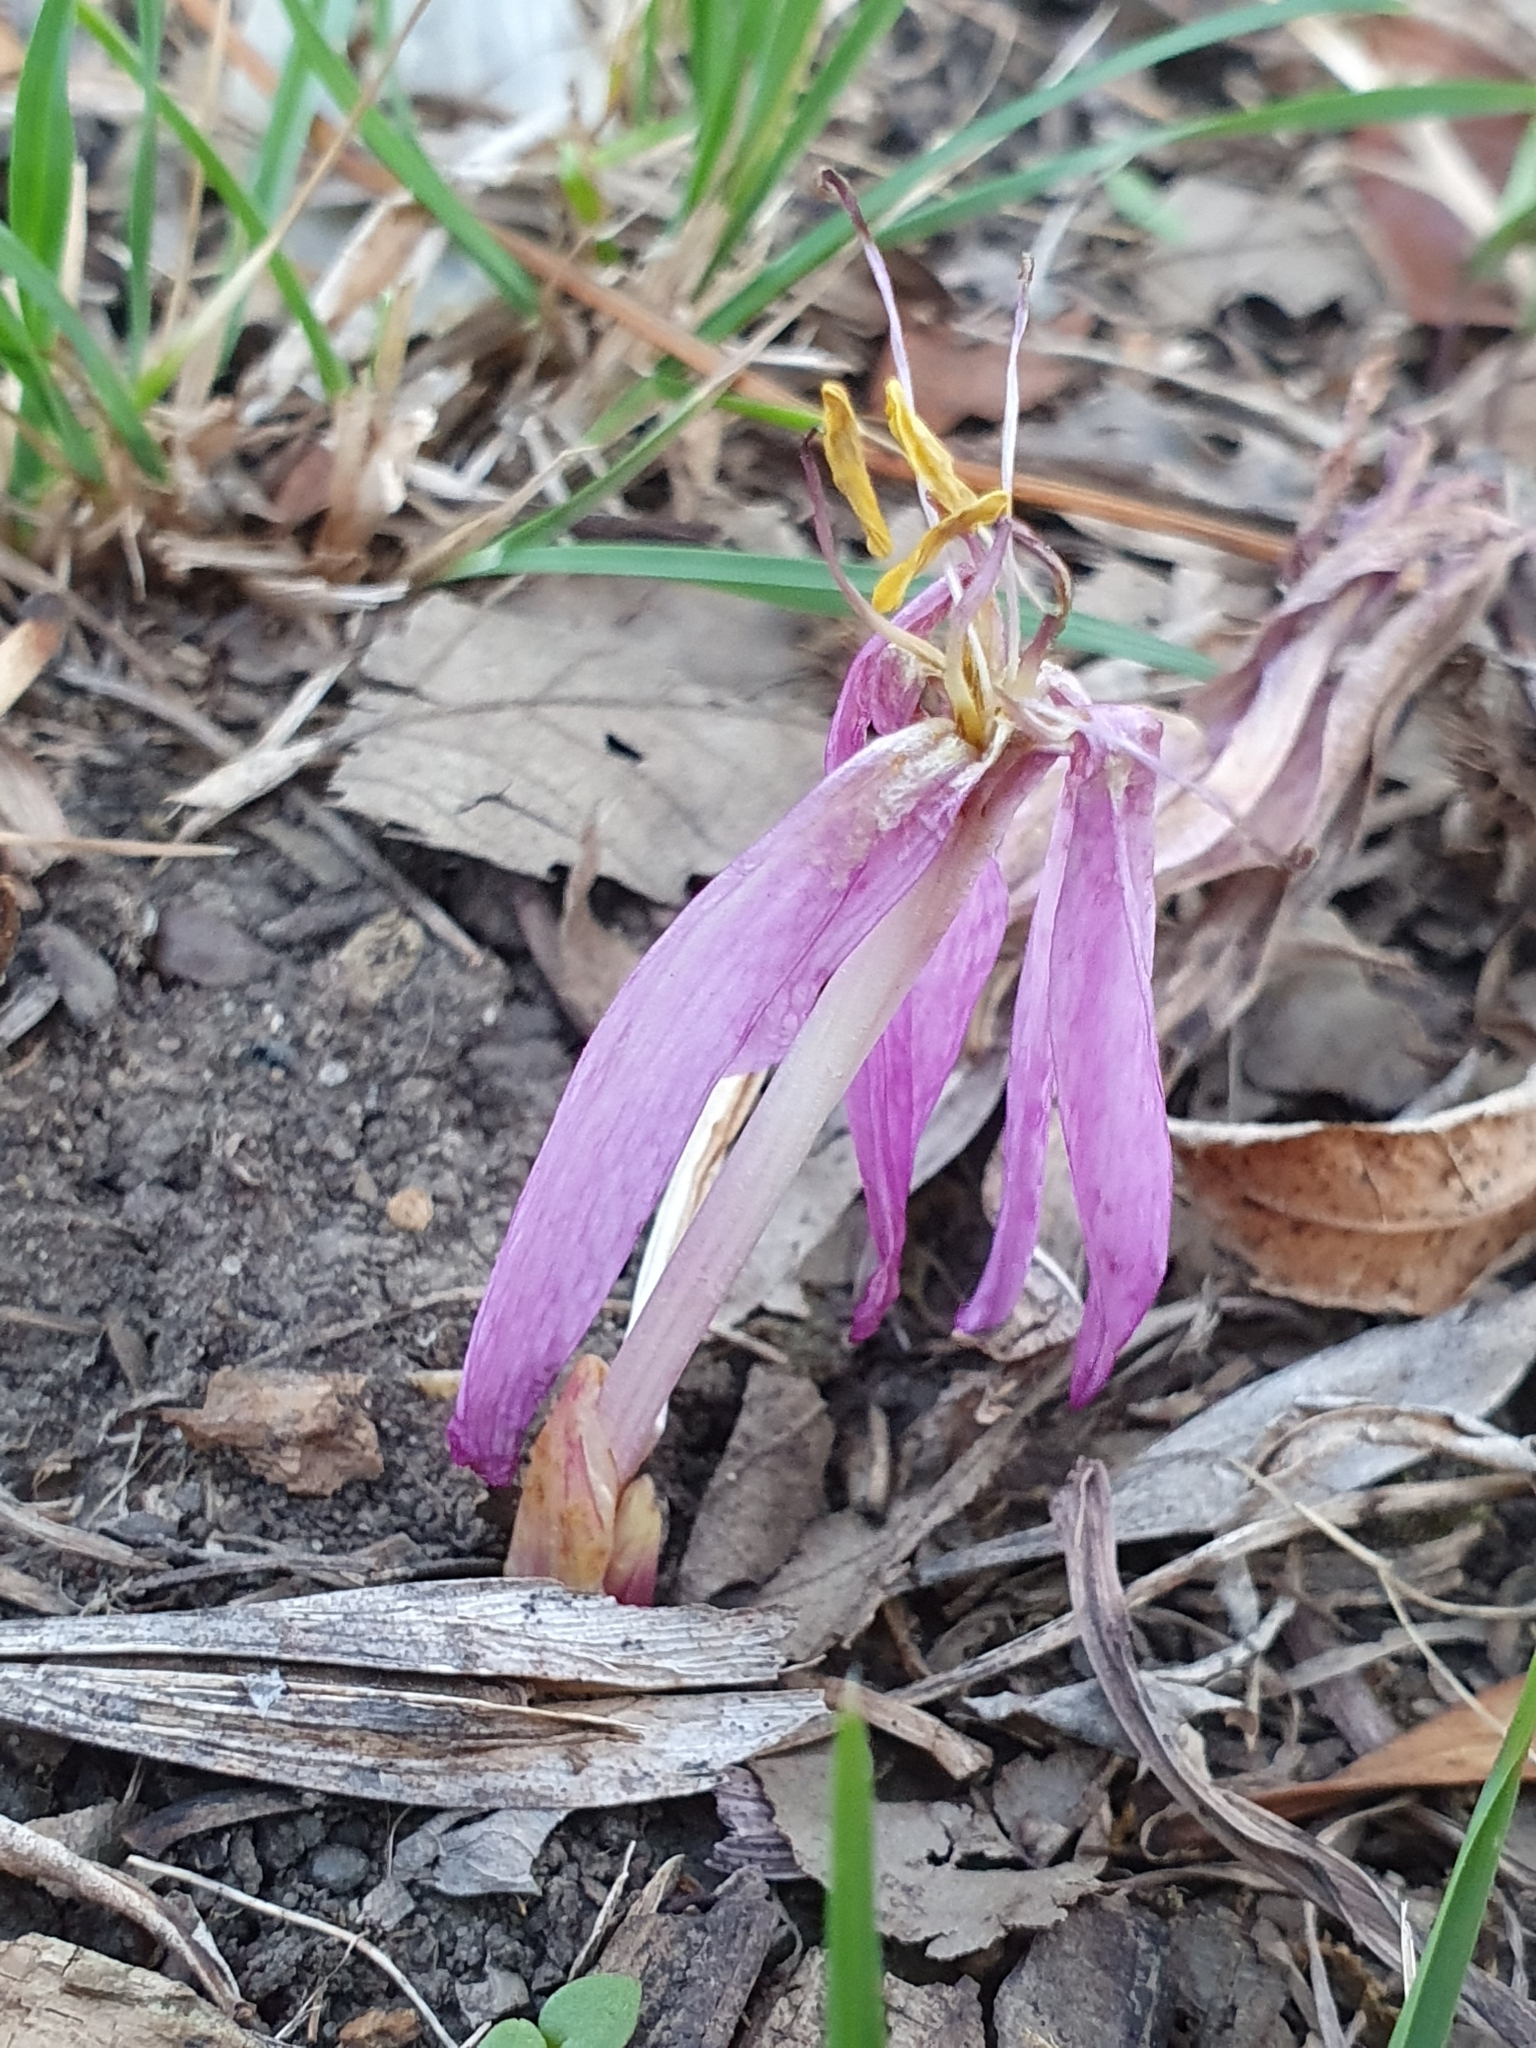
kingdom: Plantae
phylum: Tracheophyta
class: Liliopsida
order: Liliales
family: Colchicaceae
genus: Colchicum
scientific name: Colchicum lusitanum
